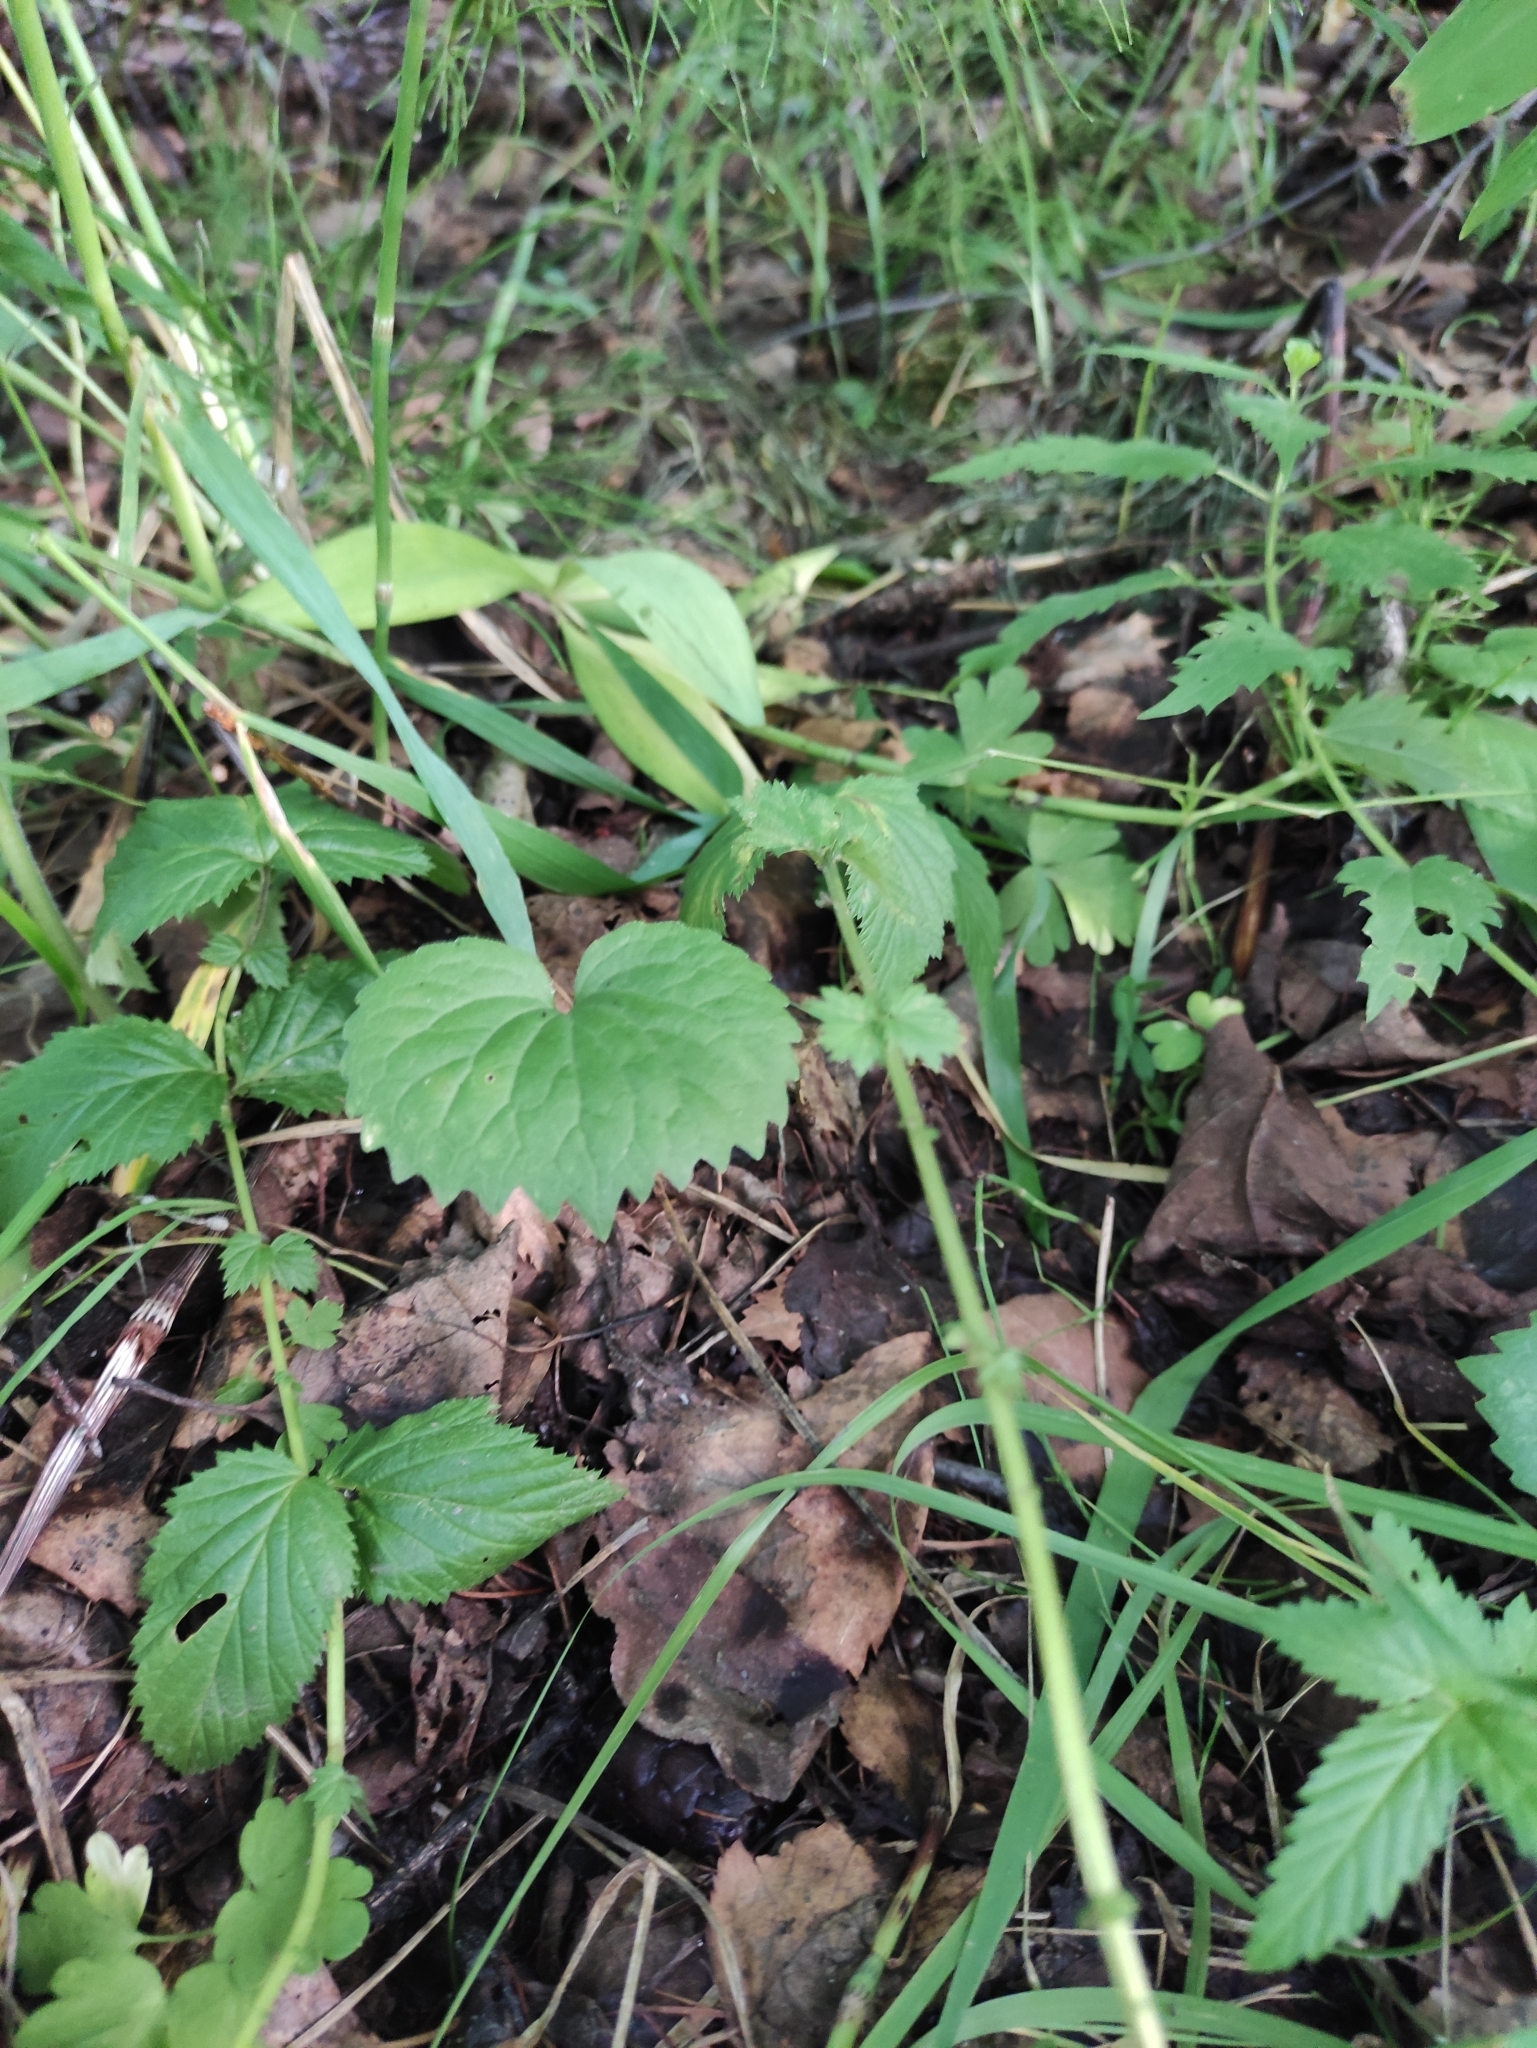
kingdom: Plantae
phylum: Tracheophyta
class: Magnoliopsida
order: Malpighiales
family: Violaceae
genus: Viola
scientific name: Viola uniflora
